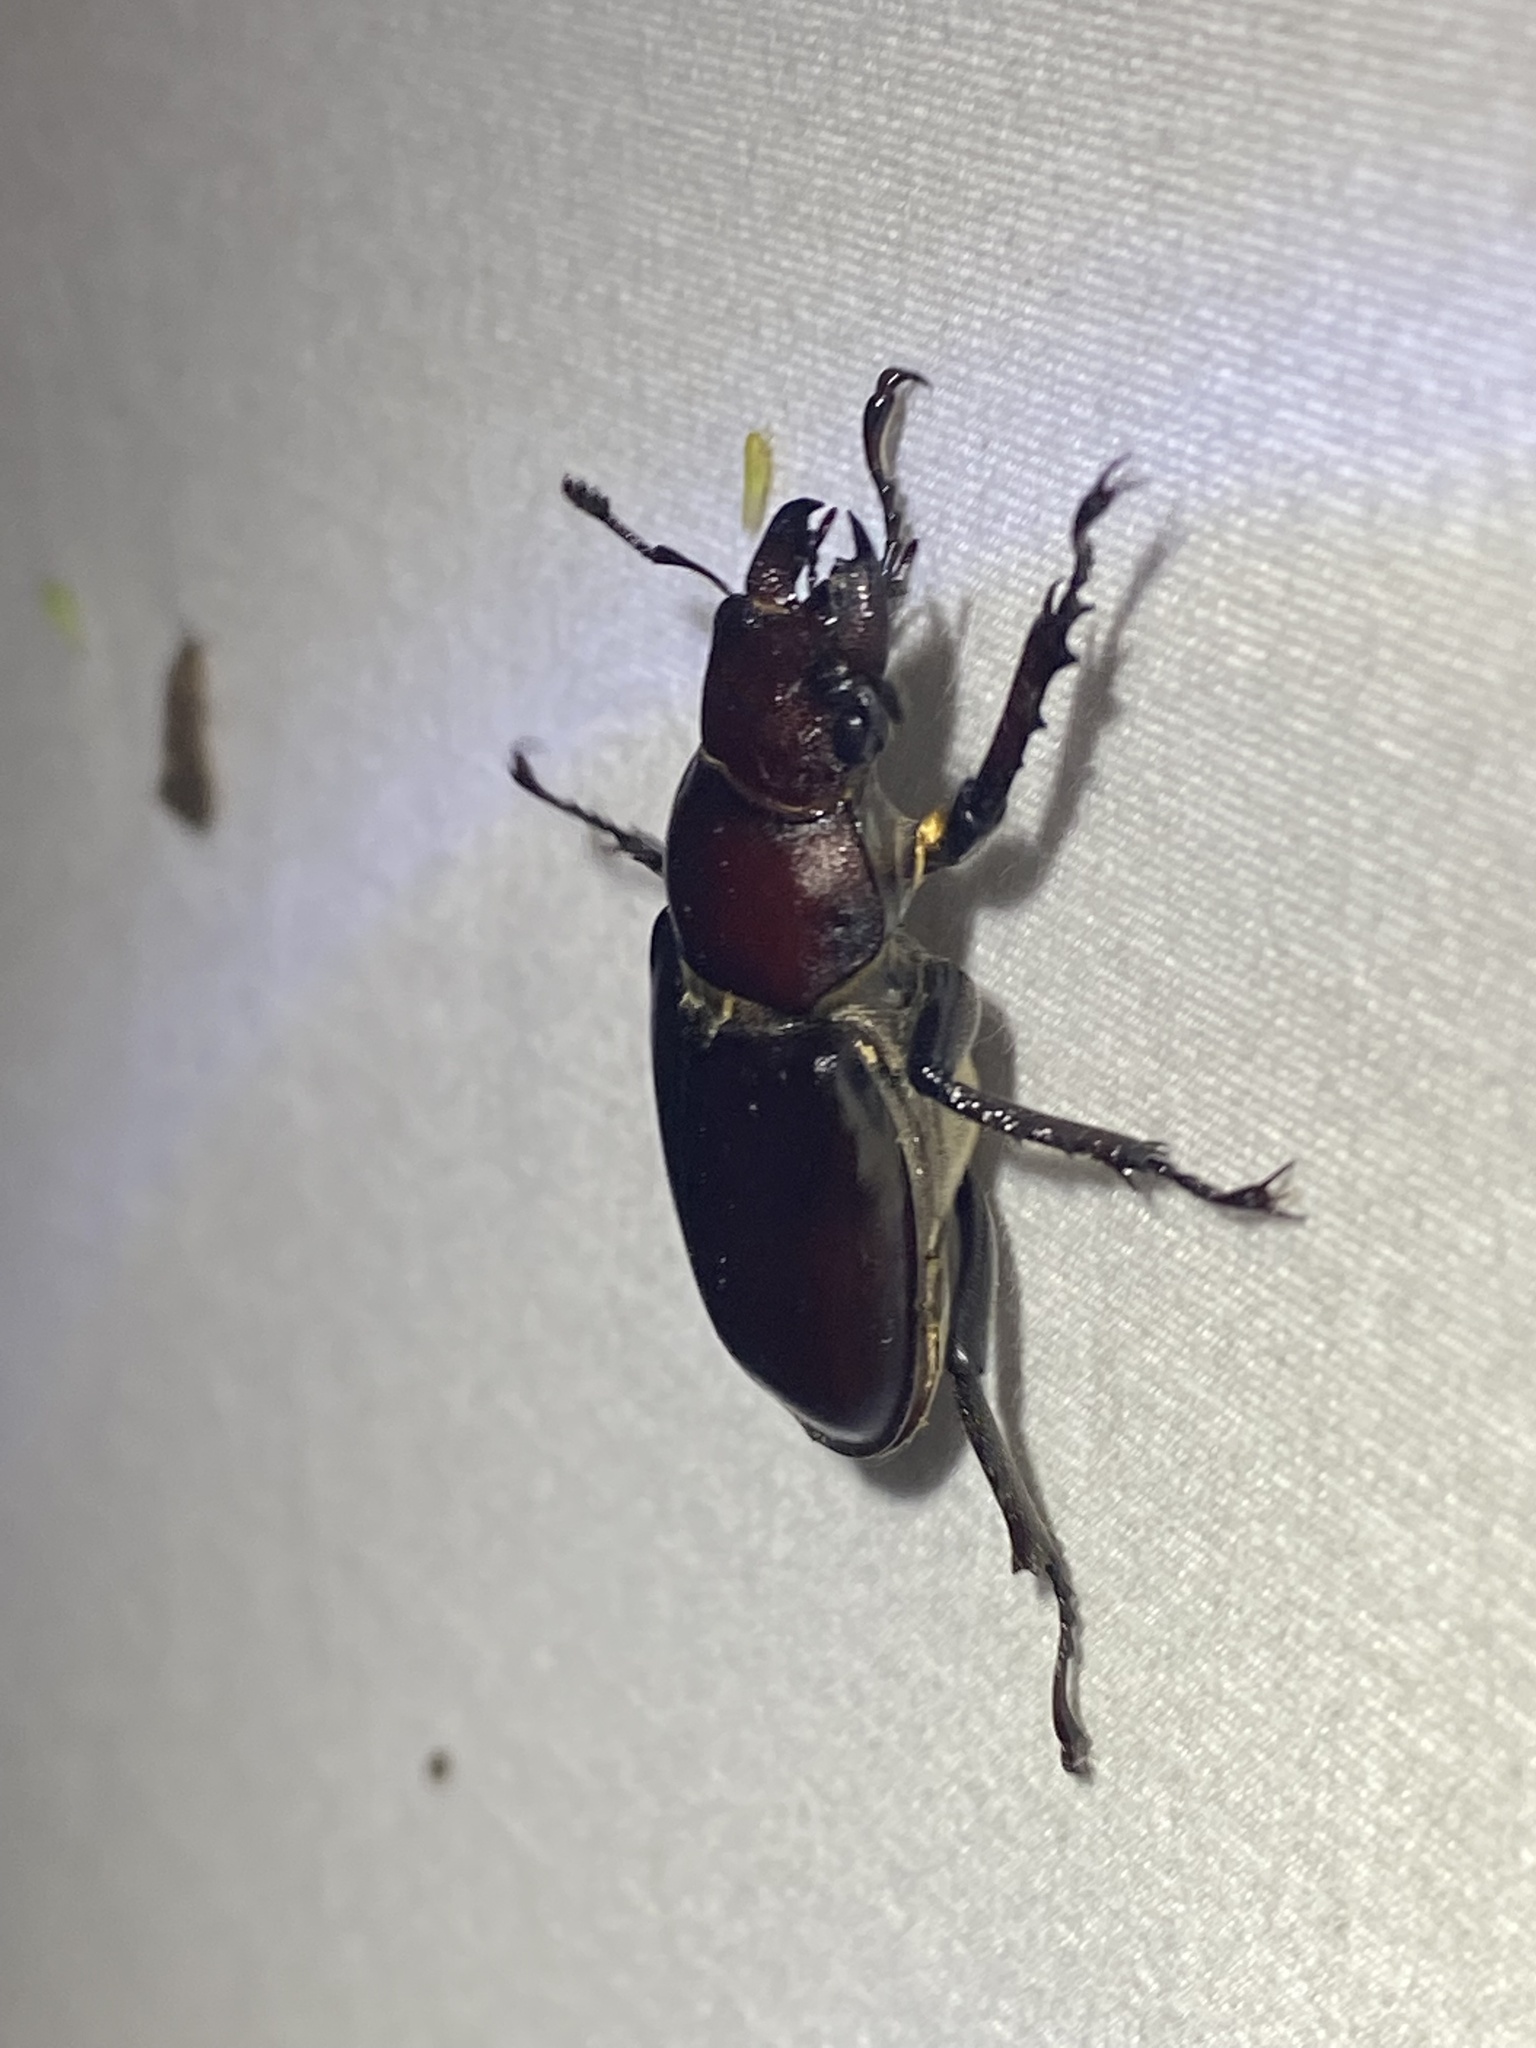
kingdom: Animalia
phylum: Arthropoda
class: Insecta
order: Coleoptera
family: Lucanidae
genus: Lucanus
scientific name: Lucanus elaphus
